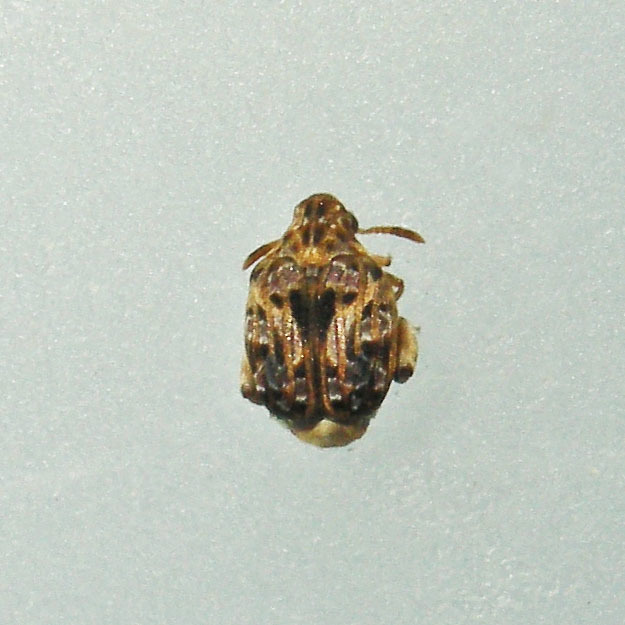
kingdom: Animalia
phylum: Arthropoda
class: Insecta
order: Coleoptera
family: Chrysomelidae
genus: Gibbobruchus
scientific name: Gibbobruchus mimus
